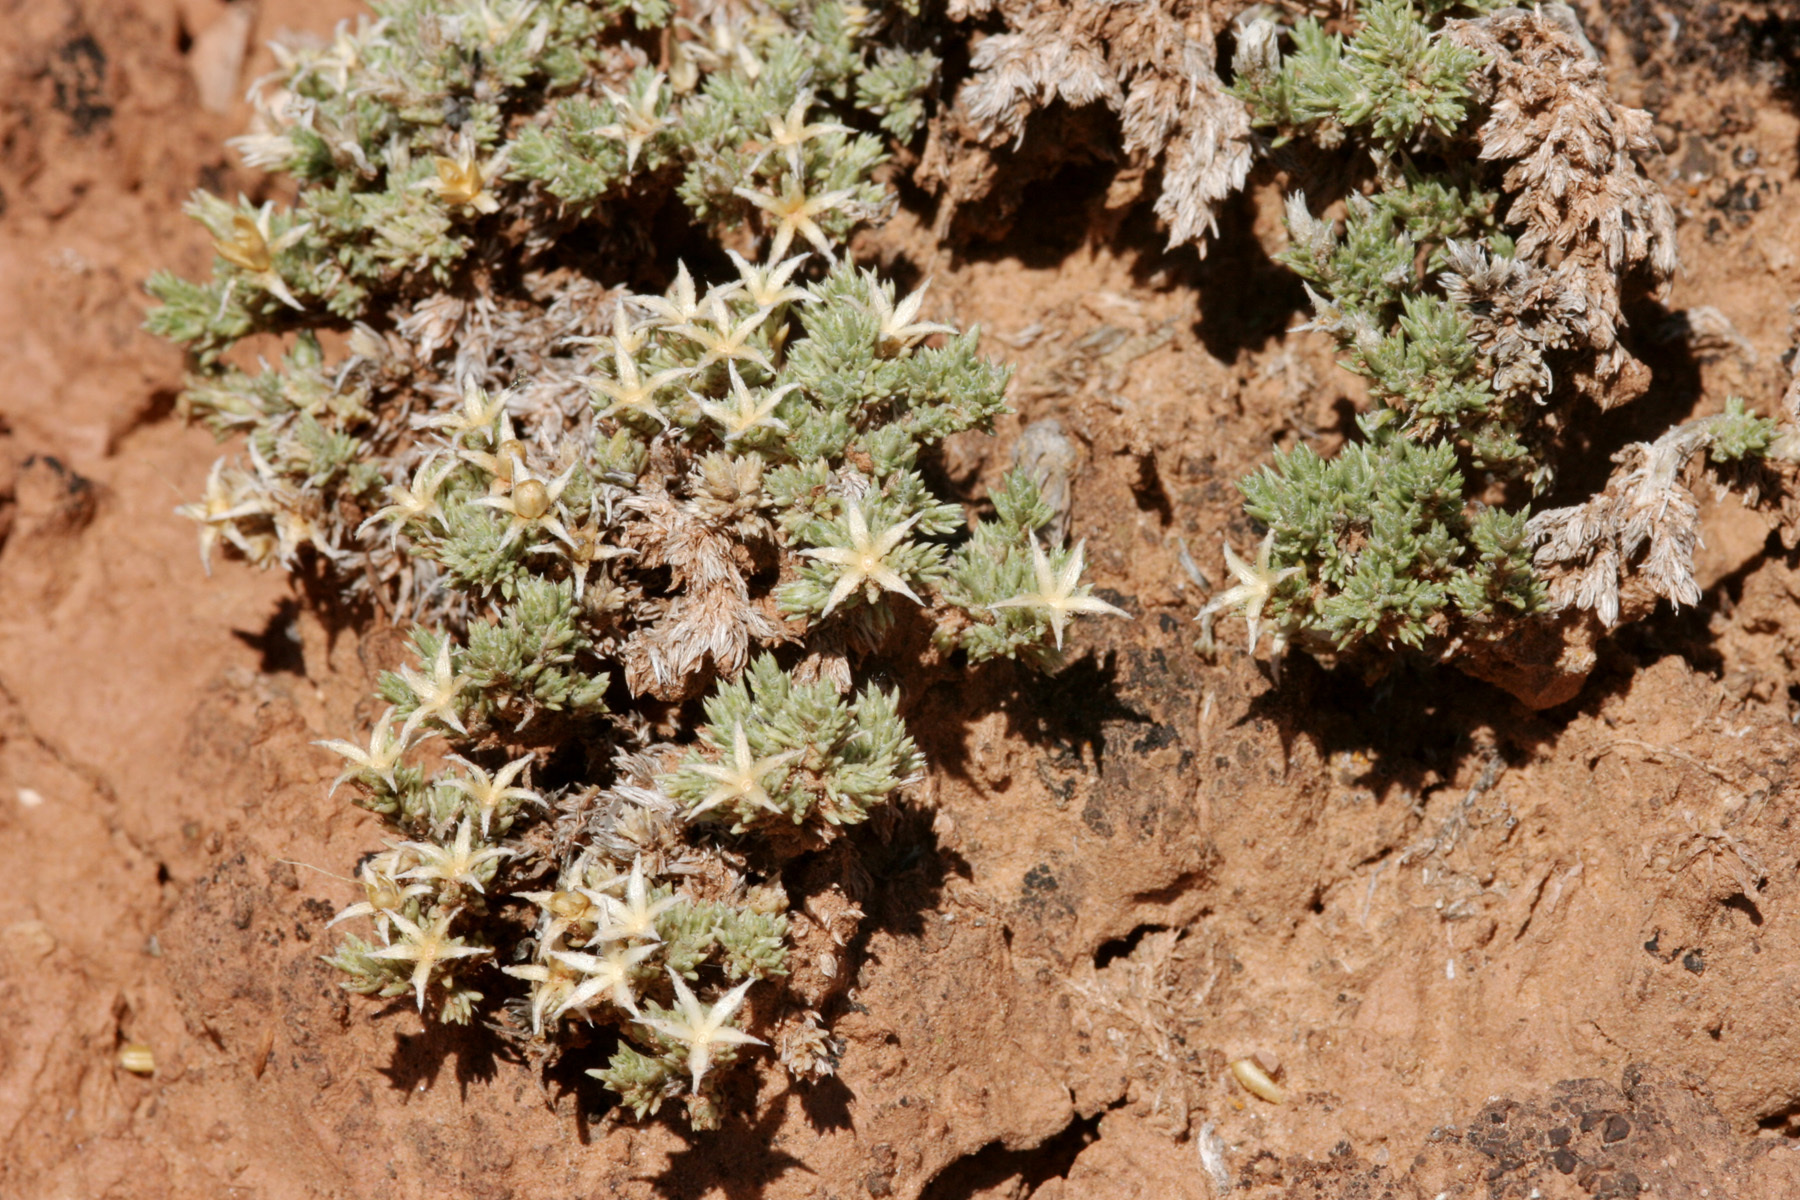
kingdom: Plantae
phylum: Tracheophyta
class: Magnoliopsida
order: Ericales
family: Polemoniaceae
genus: Phlox
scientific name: Phlox hoodii
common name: Moss phlox
